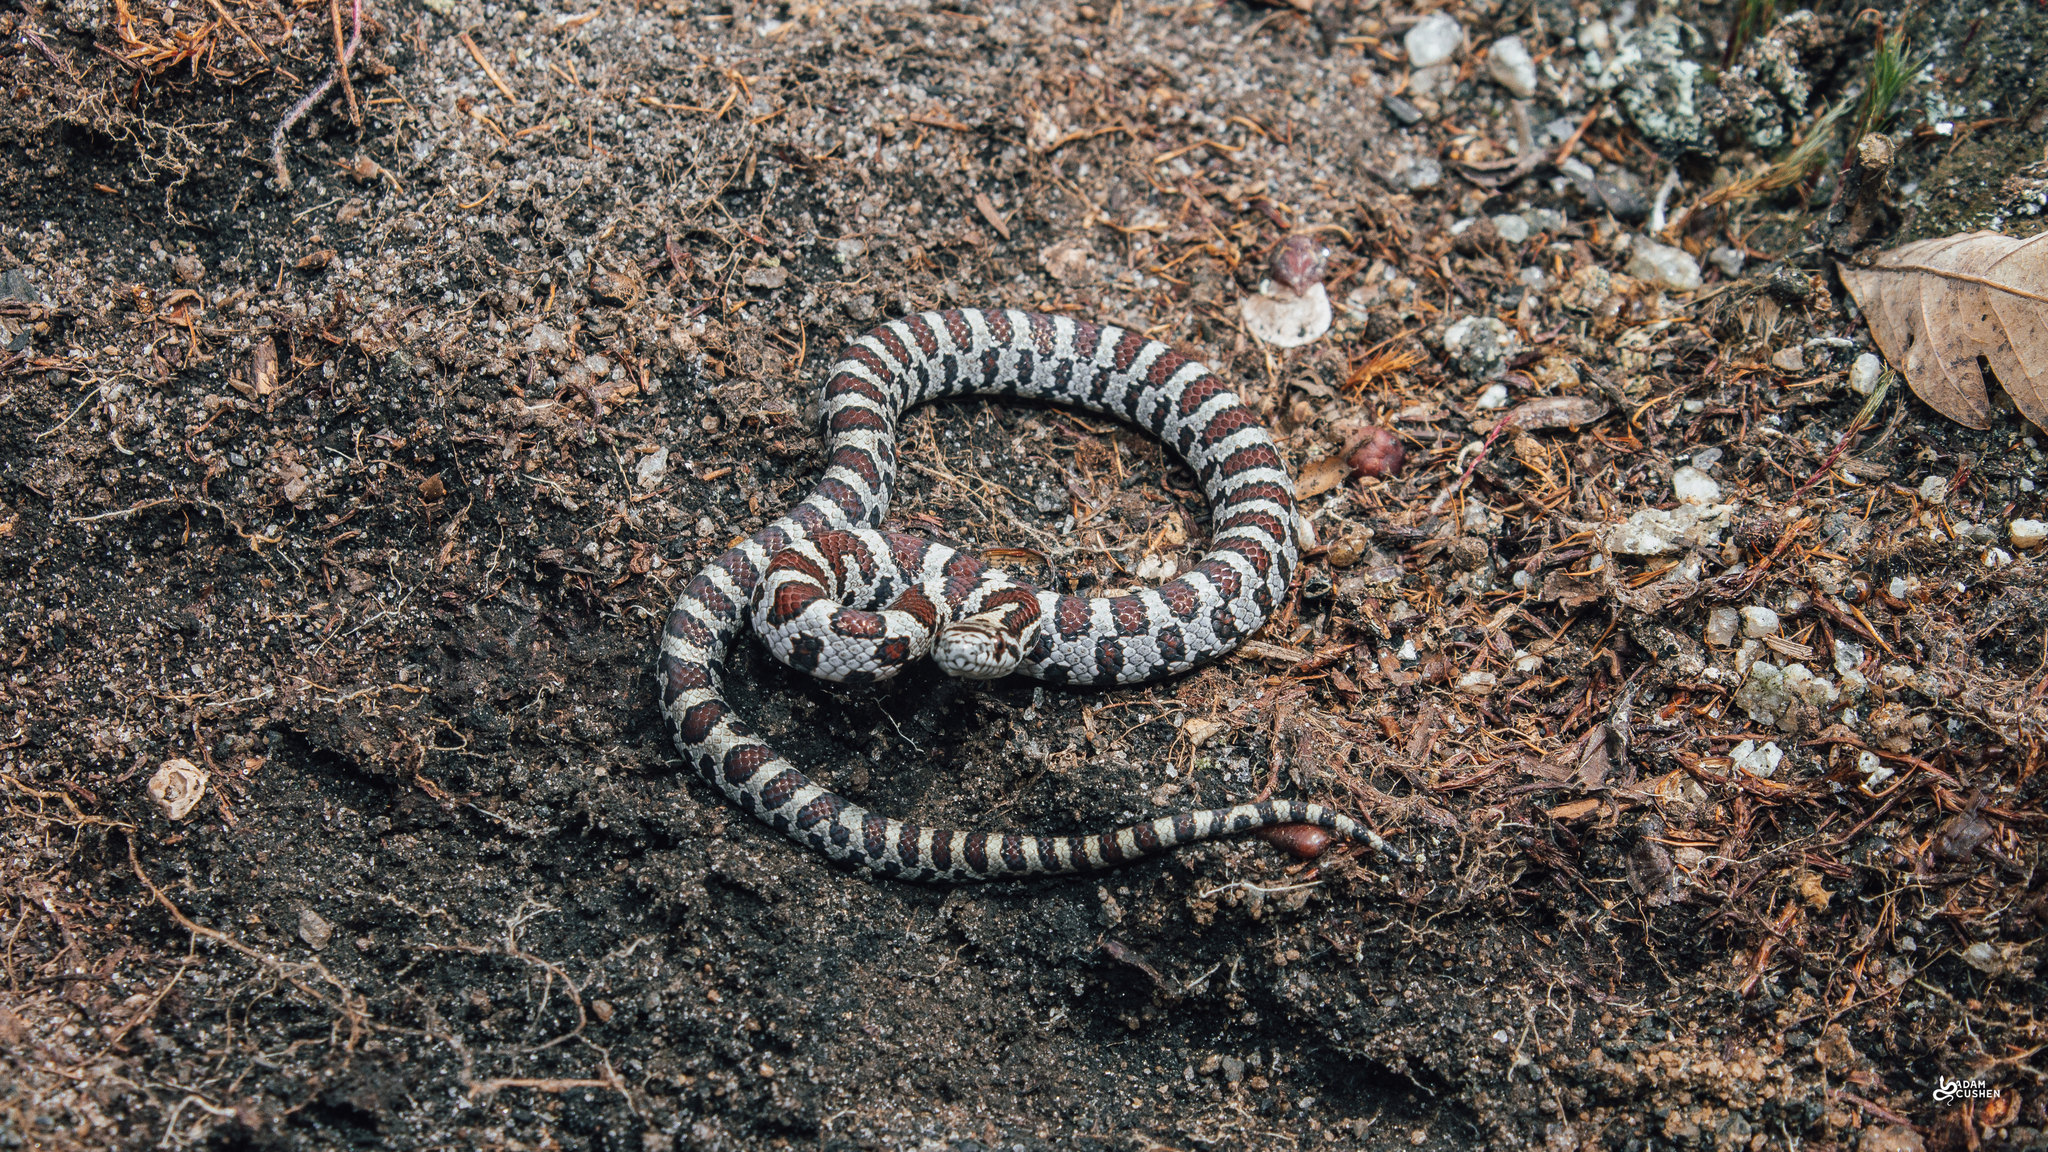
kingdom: Animalia
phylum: Chordata
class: Squamata
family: Colubridae
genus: Lampropeltis
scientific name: Lampropeltis triangulum
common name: Eastern milksnake
